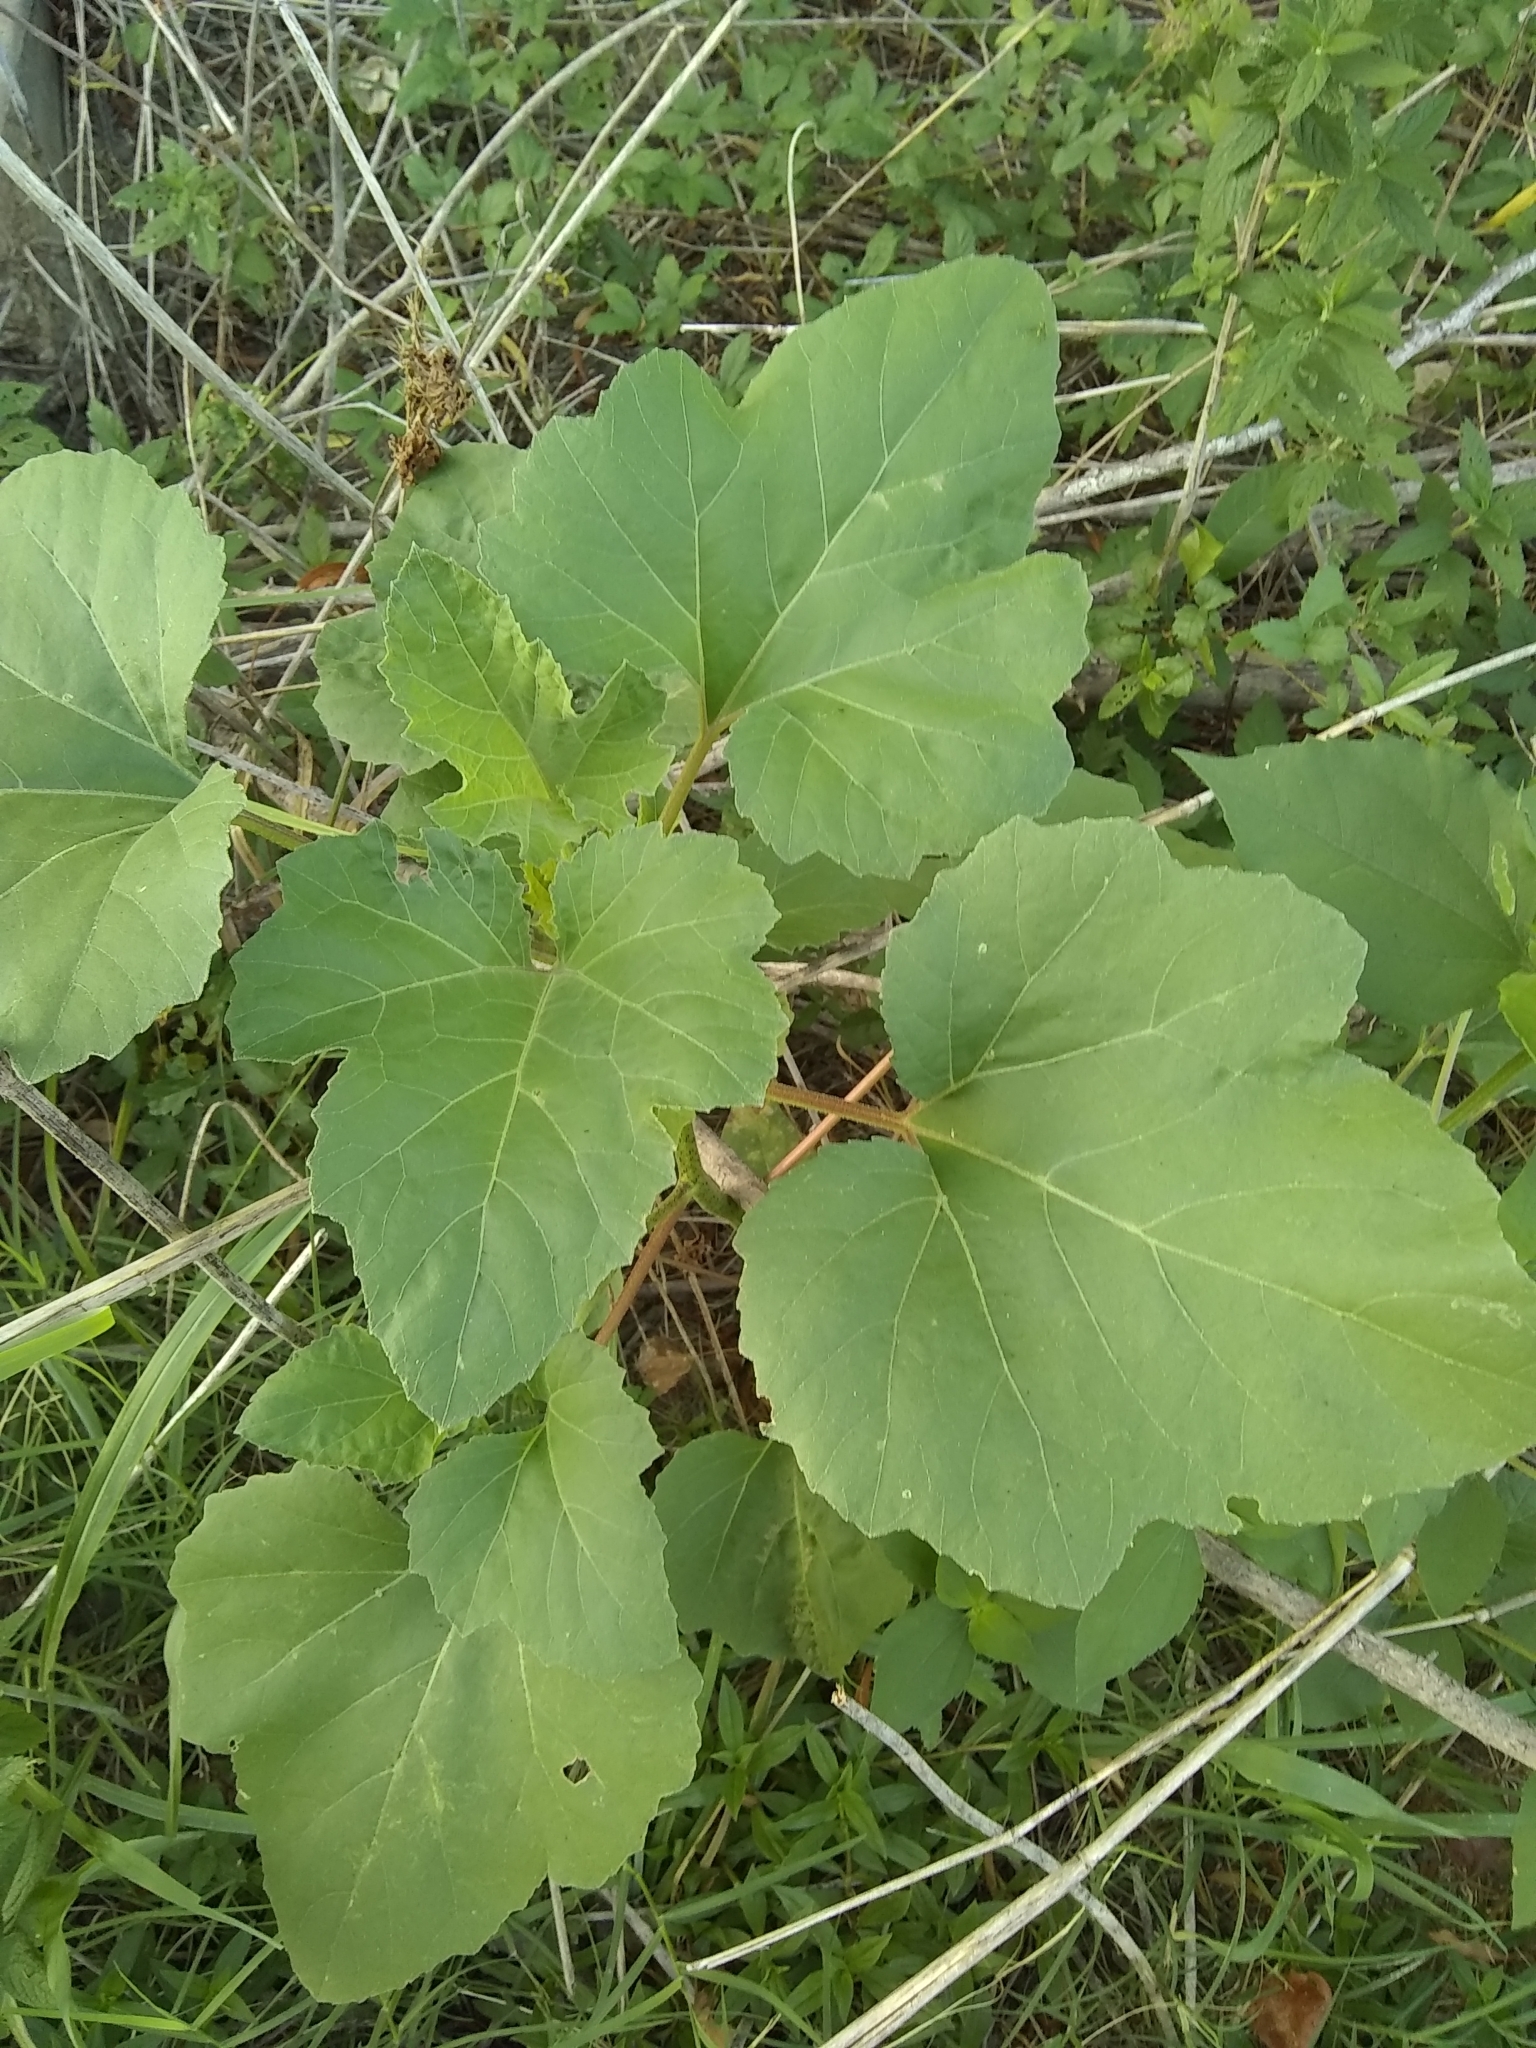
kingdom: Plantae
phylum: Tracheophyta
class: Magnoliopsida
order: Asterales
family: Asteraceae
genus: Xanthium
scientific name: Xanthium strumarium
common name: Rough cocklebur
